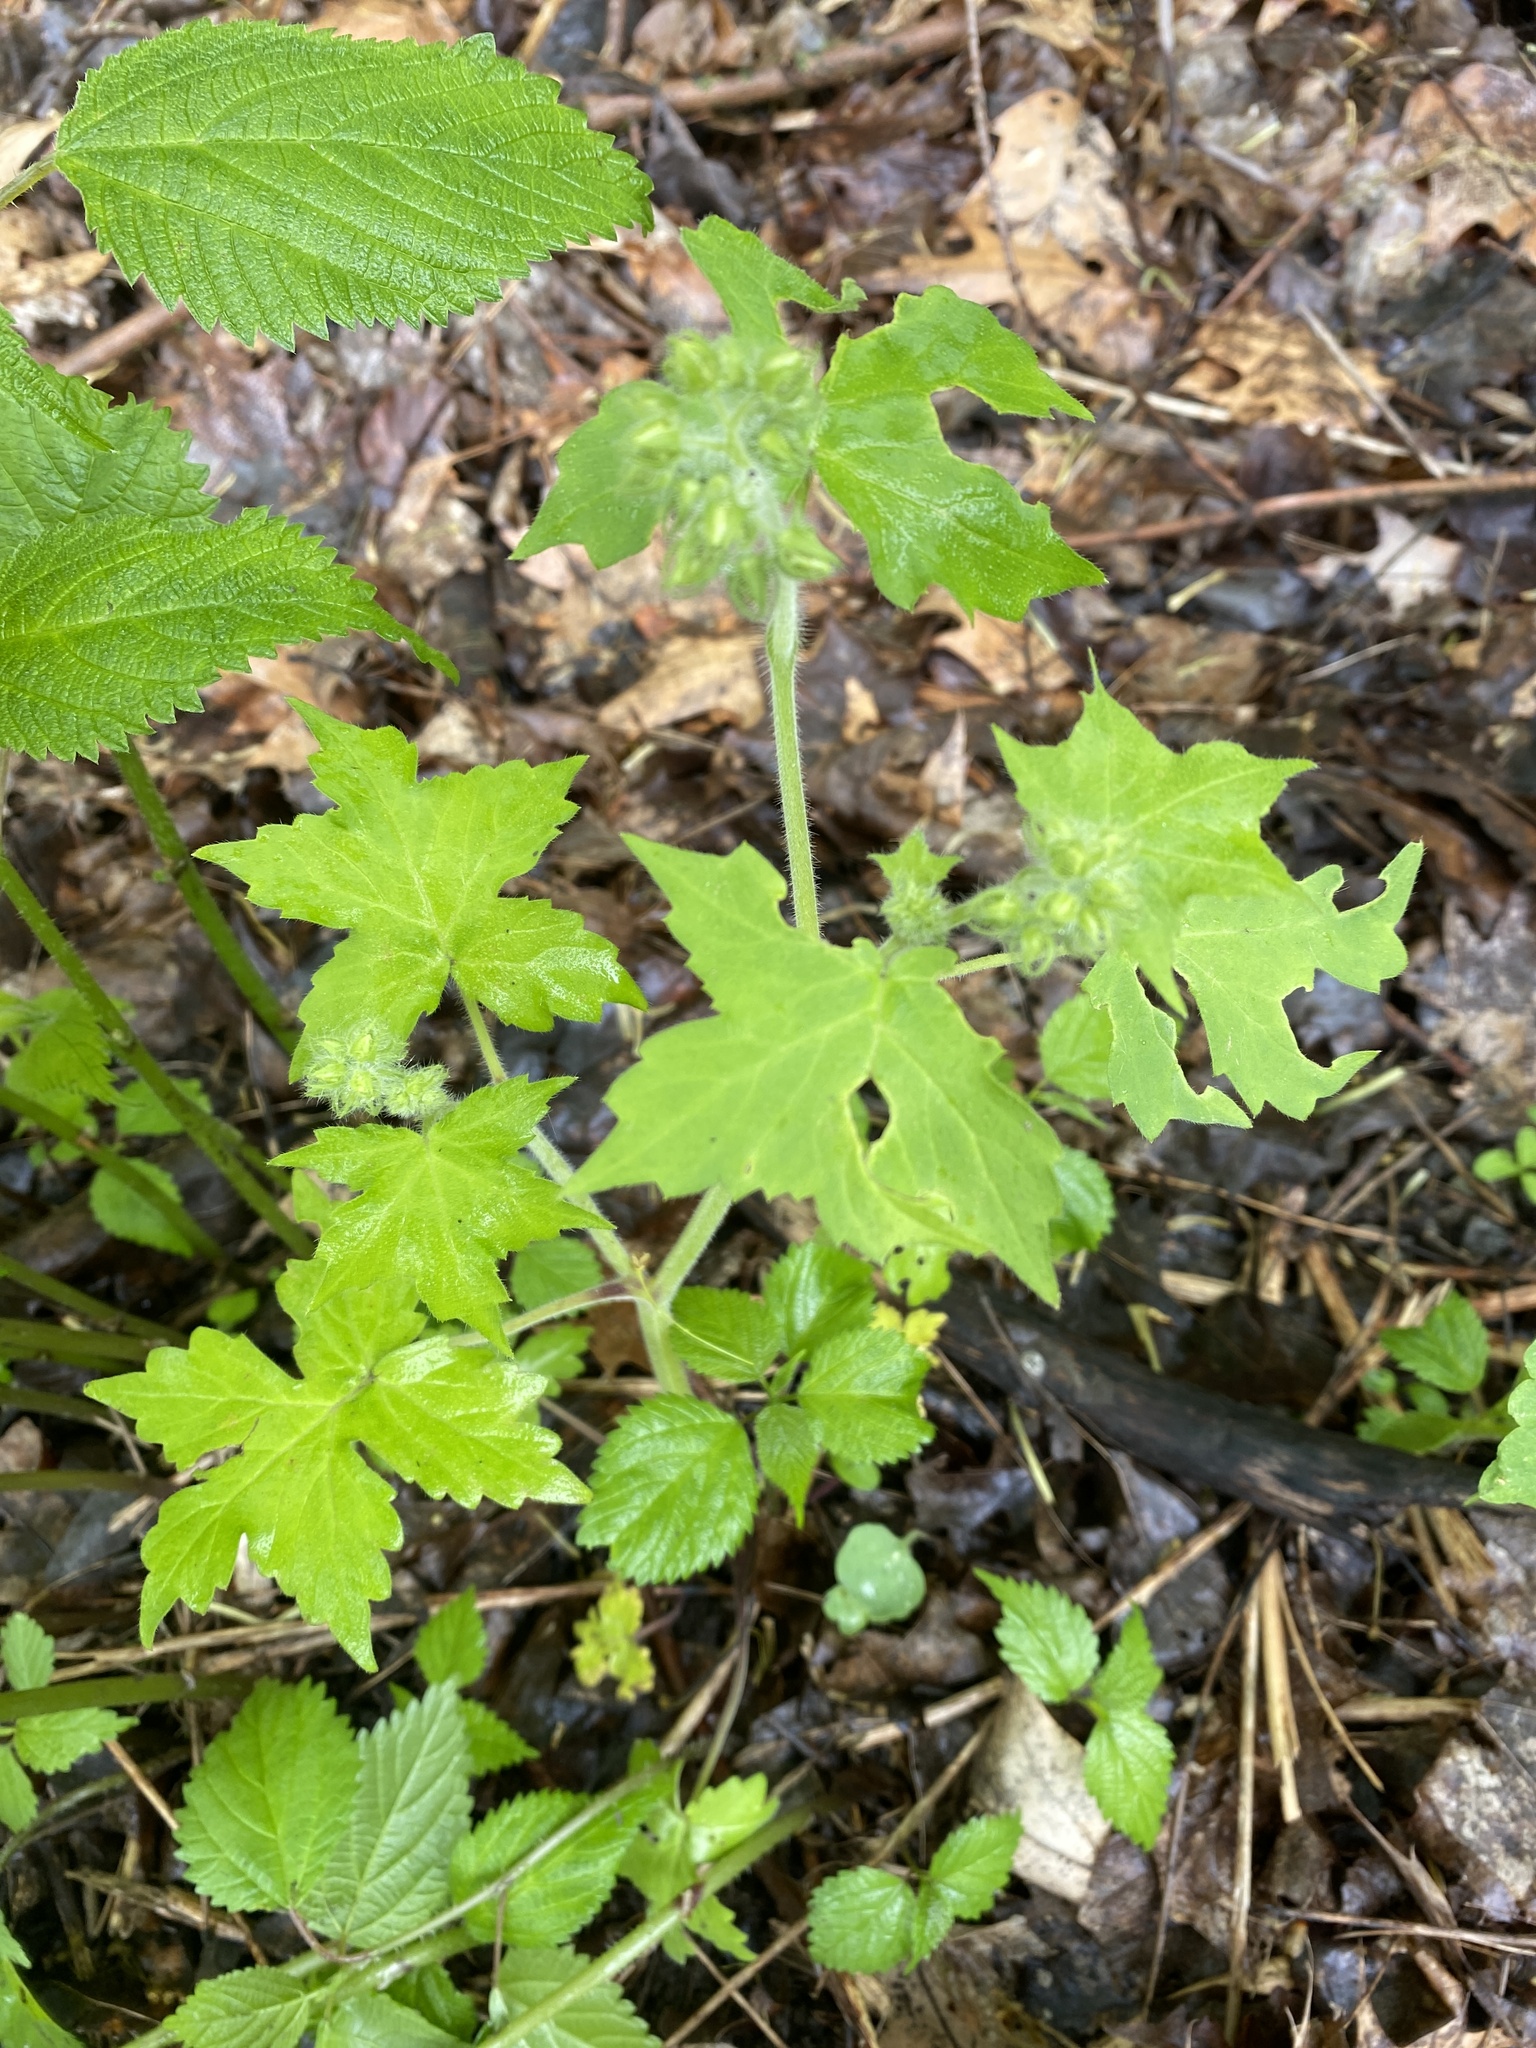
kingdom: Plantae
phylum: Tracheophyta
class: Magnoliopsida
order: Boraginales
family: Hydrophyllaceae
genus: Hydrophyllum
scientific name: Hydrophyllum appendiculatum
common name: Appendaged waterleaf
